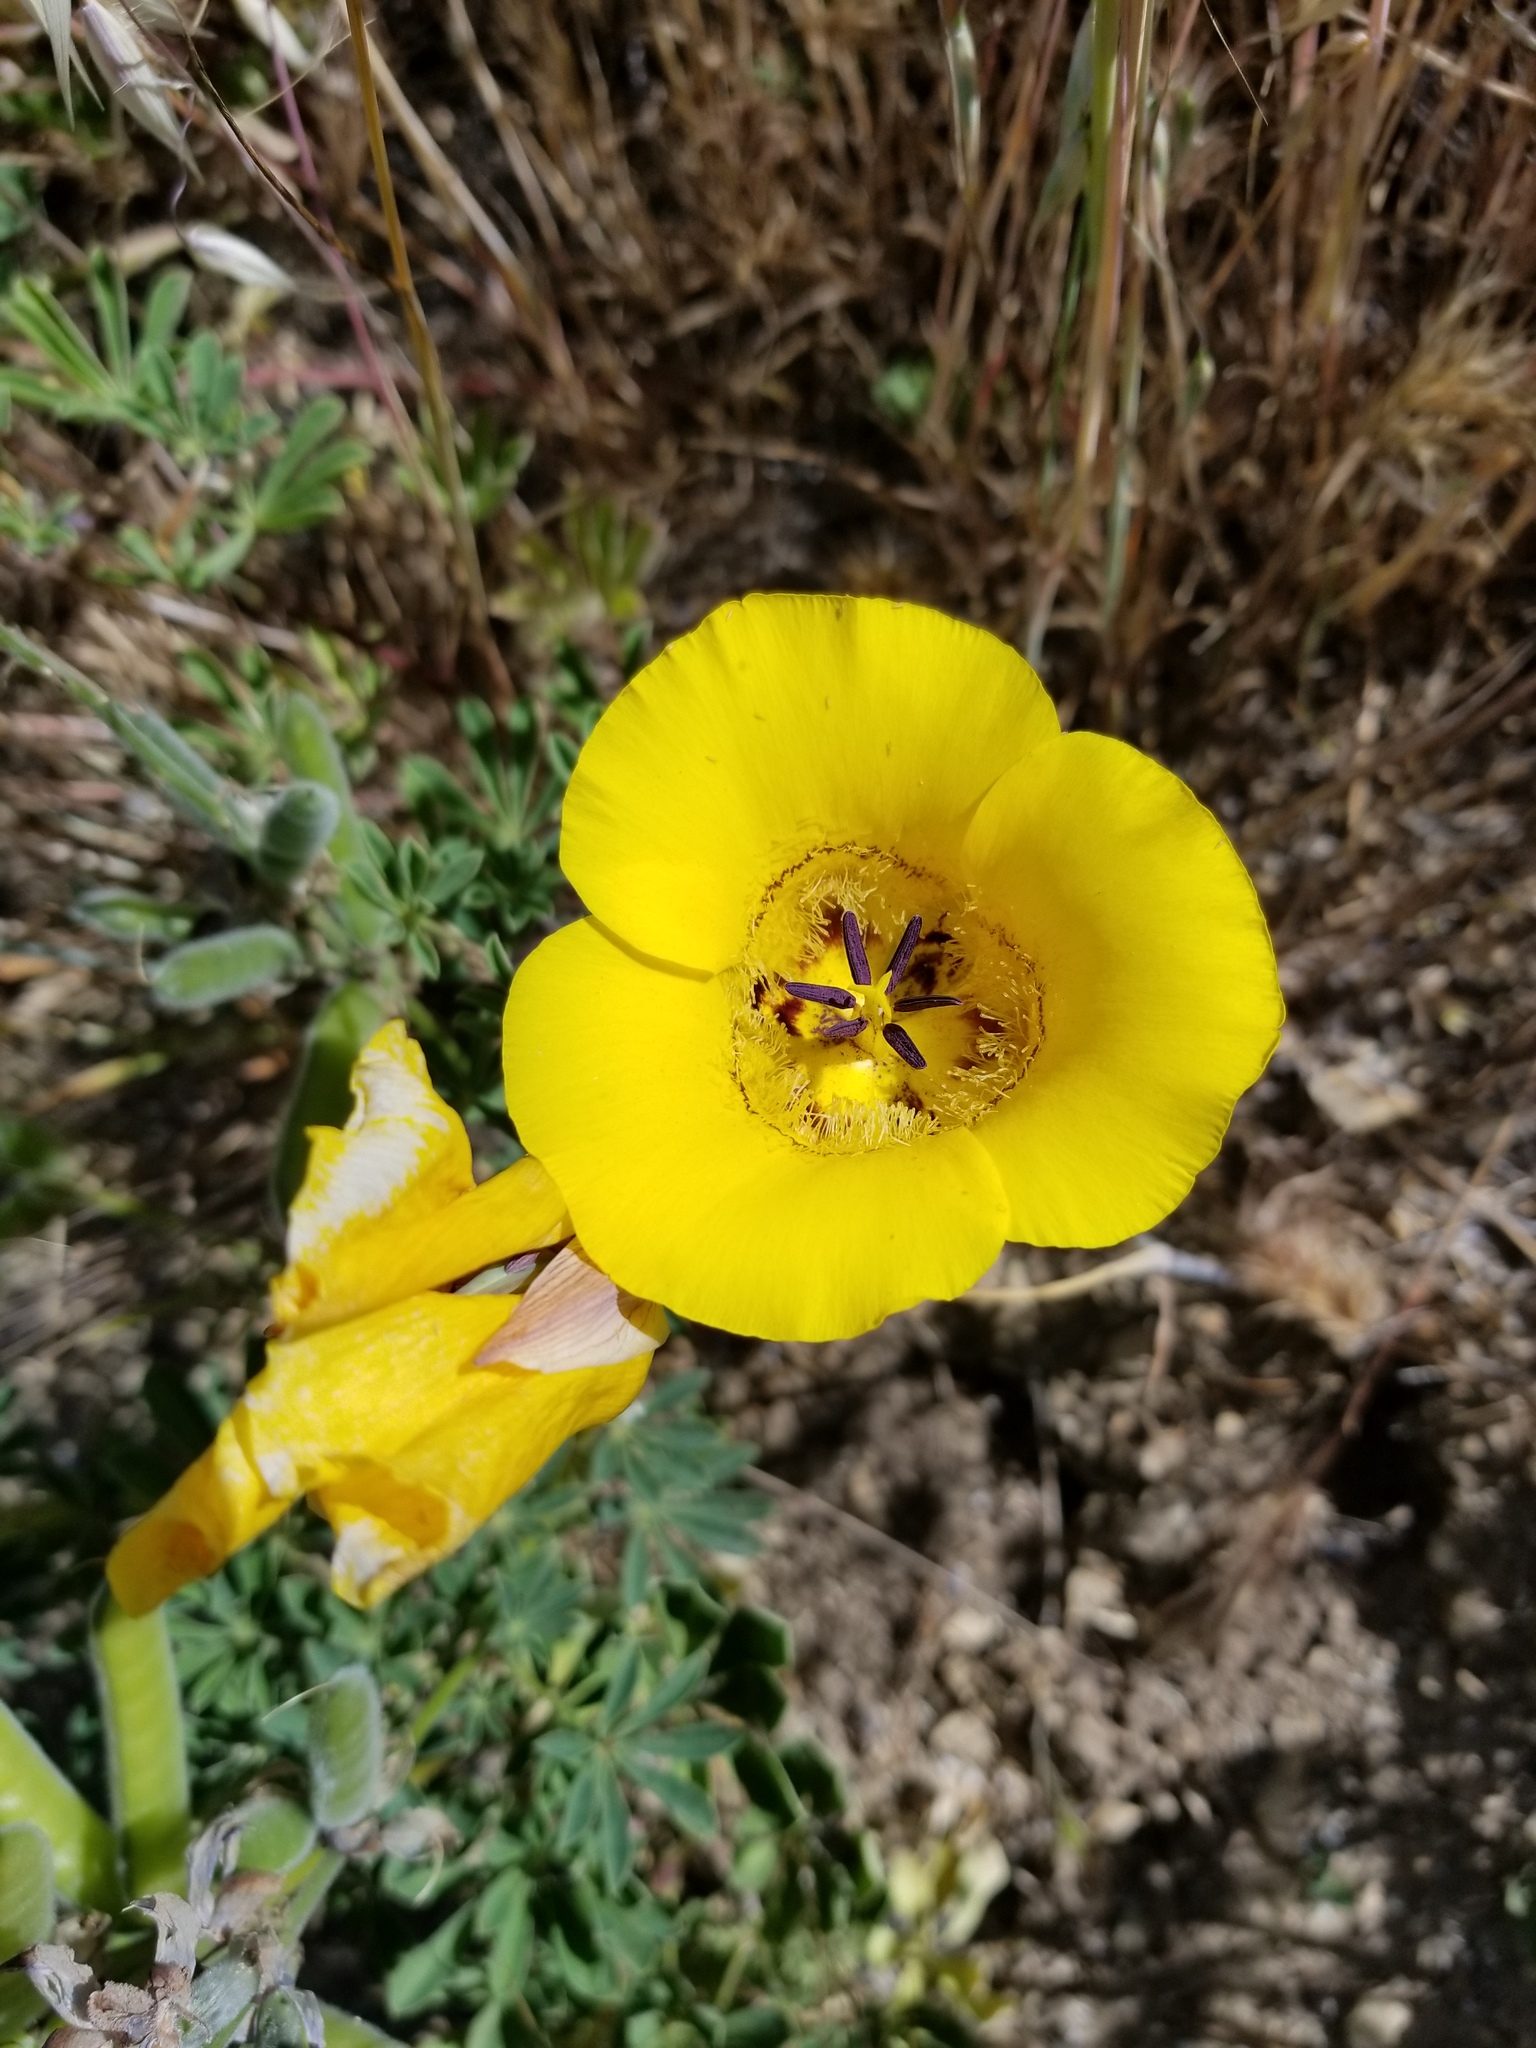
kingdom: Plantae
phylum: Tracheophyta
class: Liliopsida
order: Liliales
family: Liliaceae
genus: Calochortus
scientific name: Calochortus clavatus
